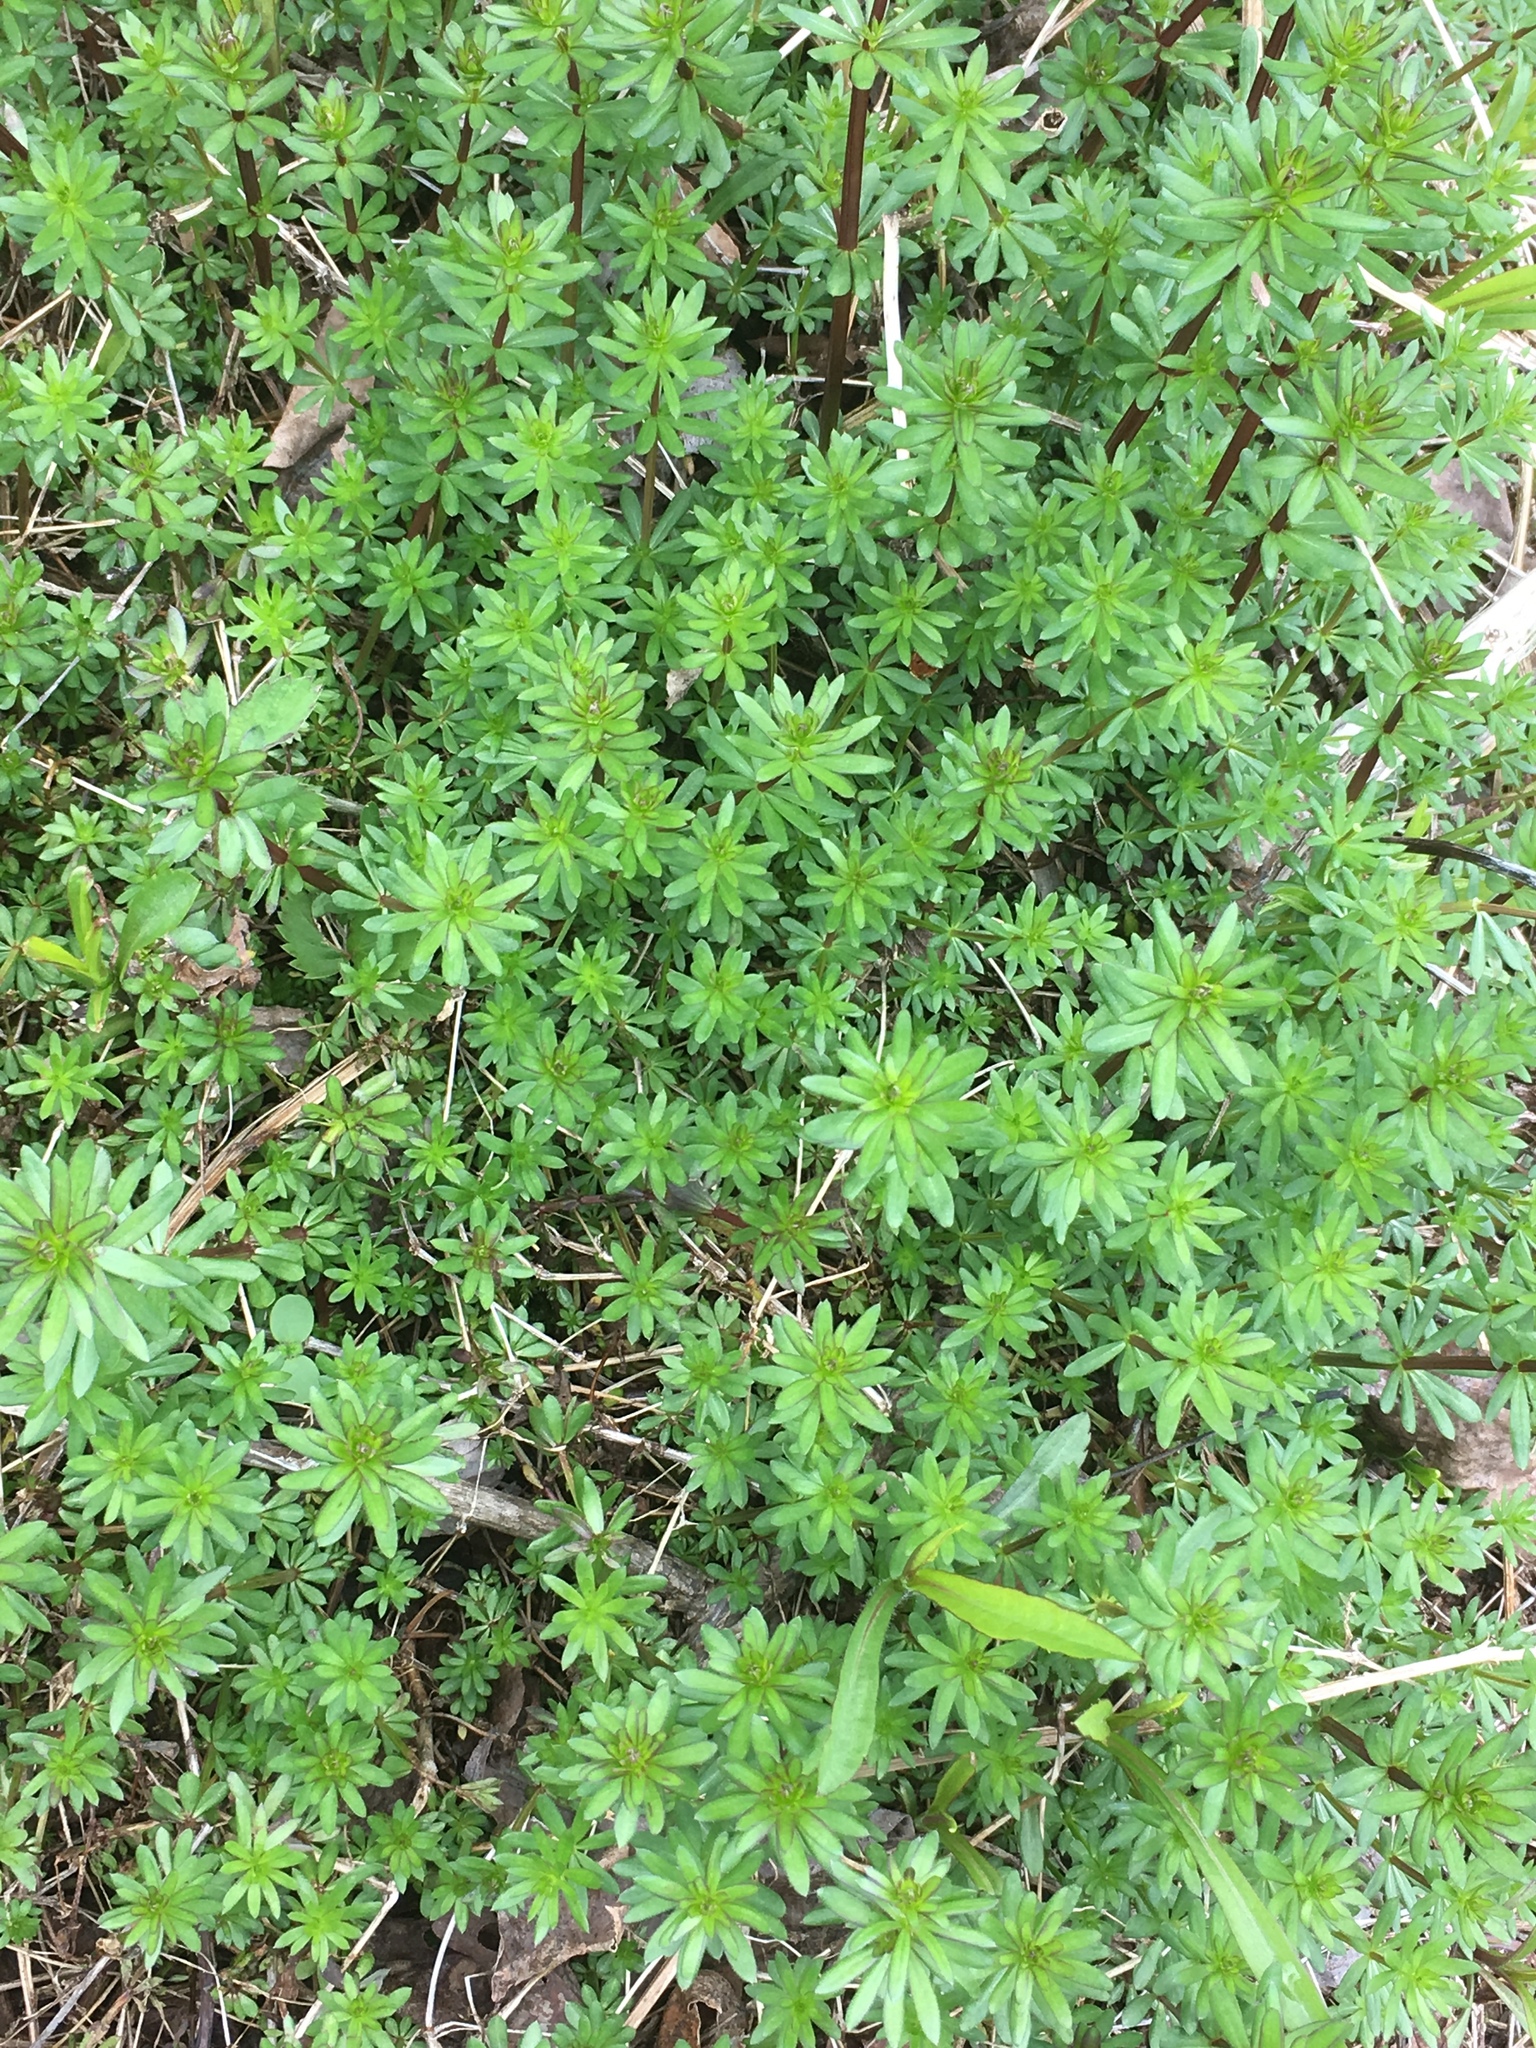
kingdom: Plantae
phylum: Tracheophyta
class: Magnoliopsida
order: Gentianales
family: Rubiaceae
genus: Galium
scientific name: Galium mollugo
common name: Hedge bedstraw
